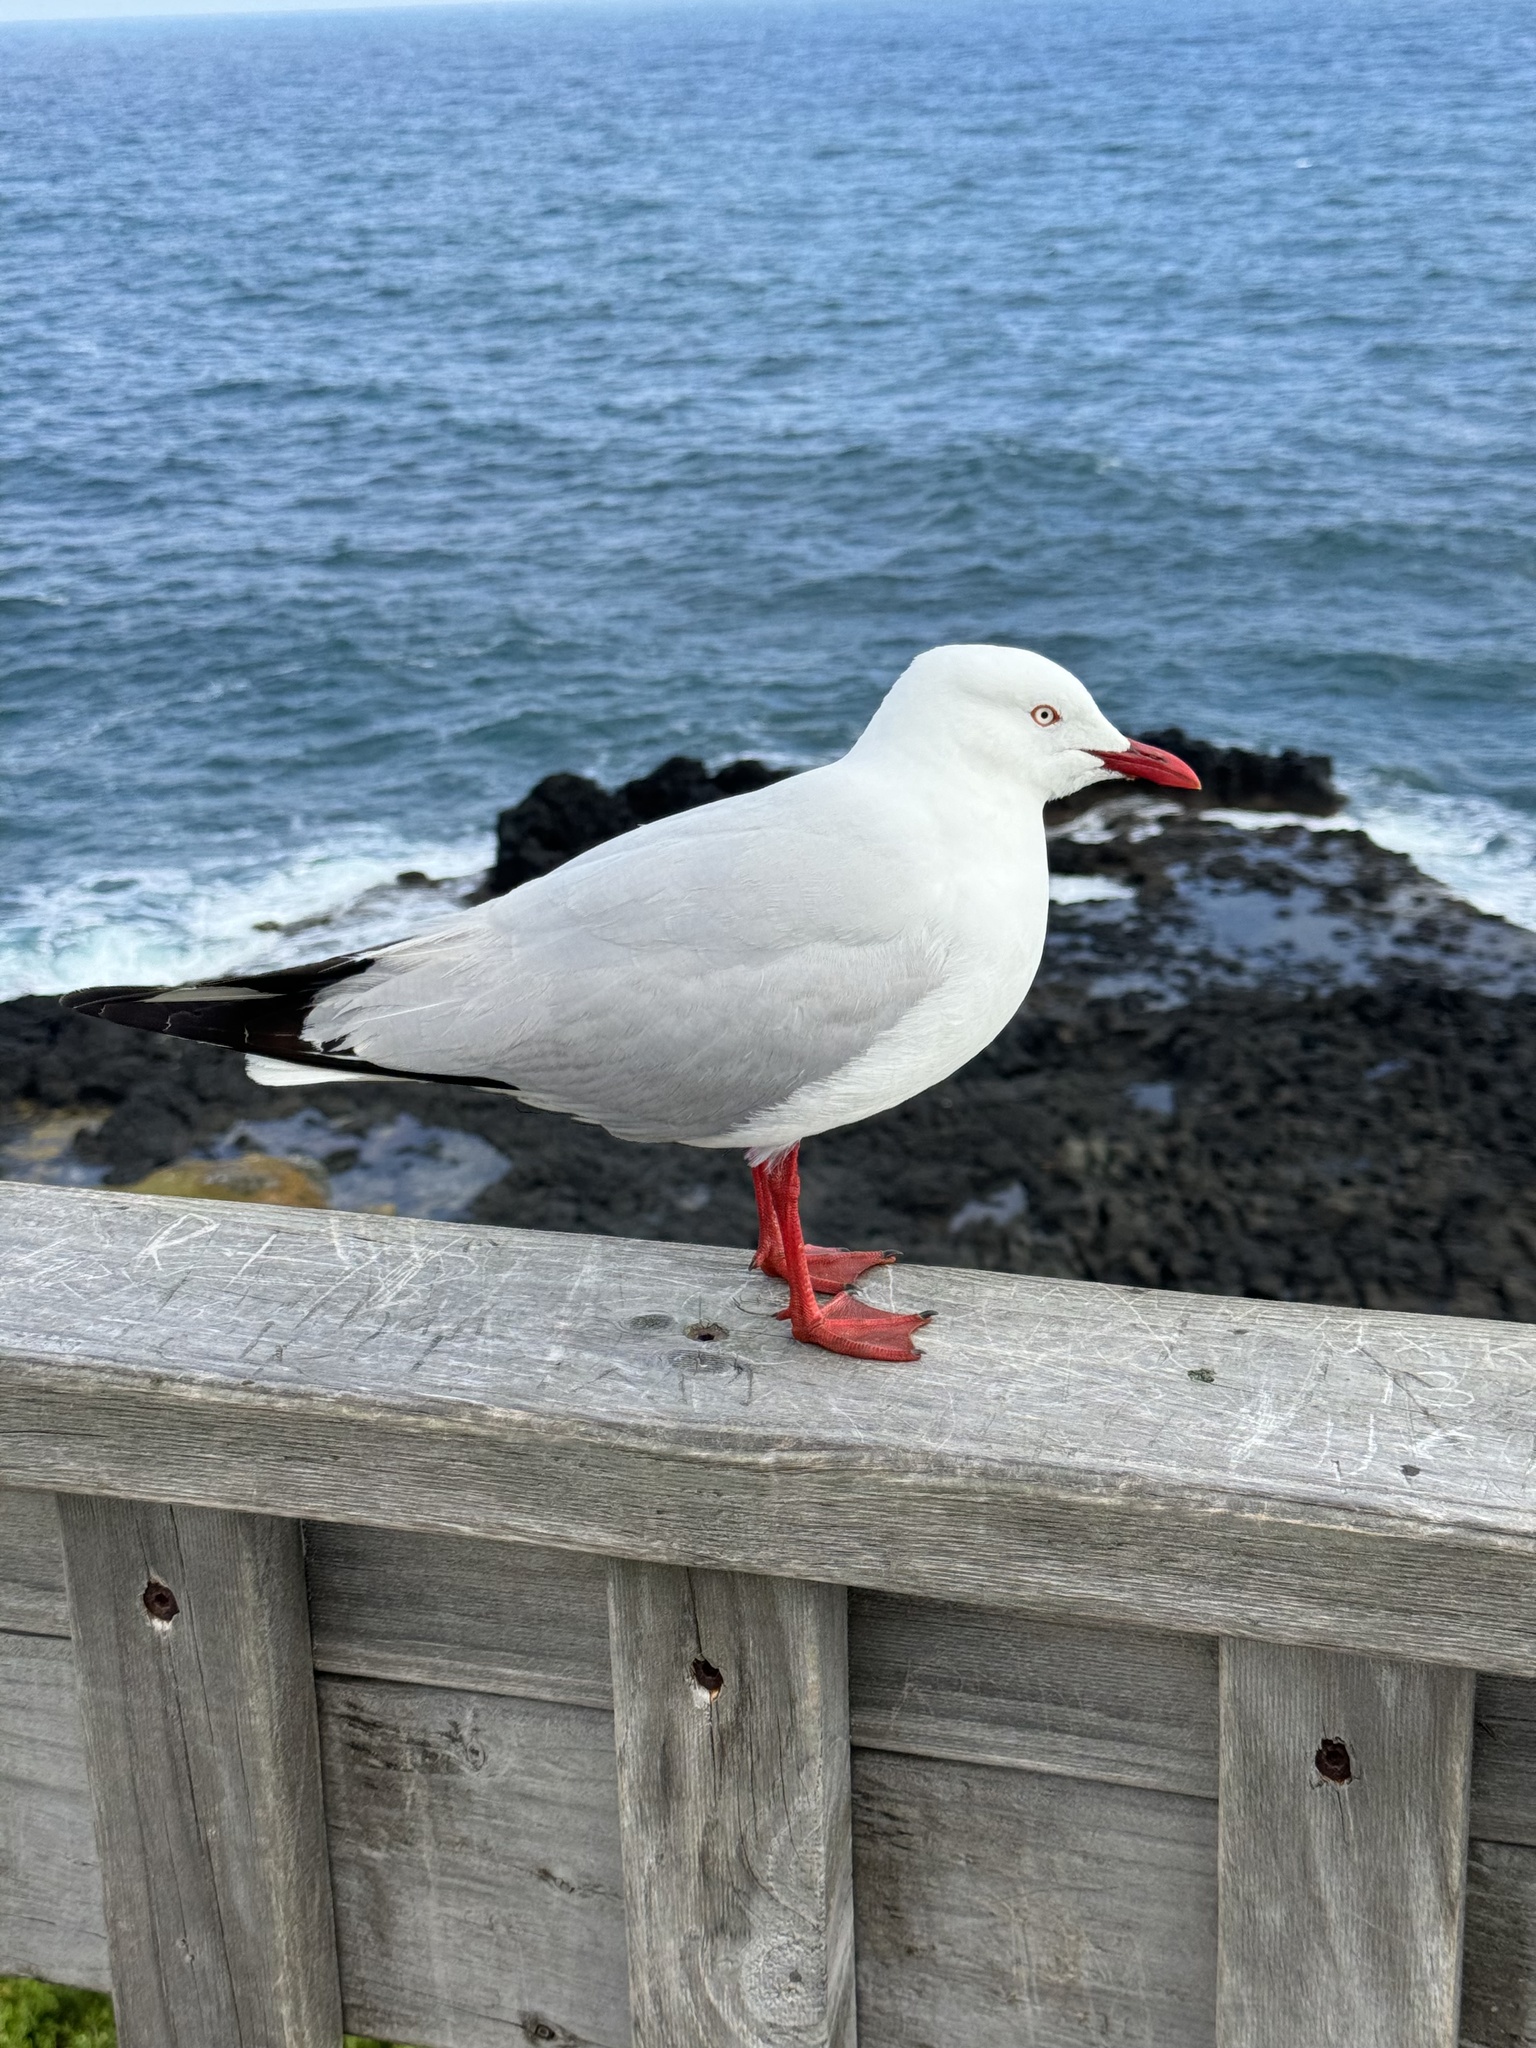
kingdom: Animalia
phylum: Chordata
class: Aves
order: Charadriiformes
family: Laridae
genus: Chroicocephalus
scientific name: Chroicocephalus novaehollandiae
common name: Silver gull
